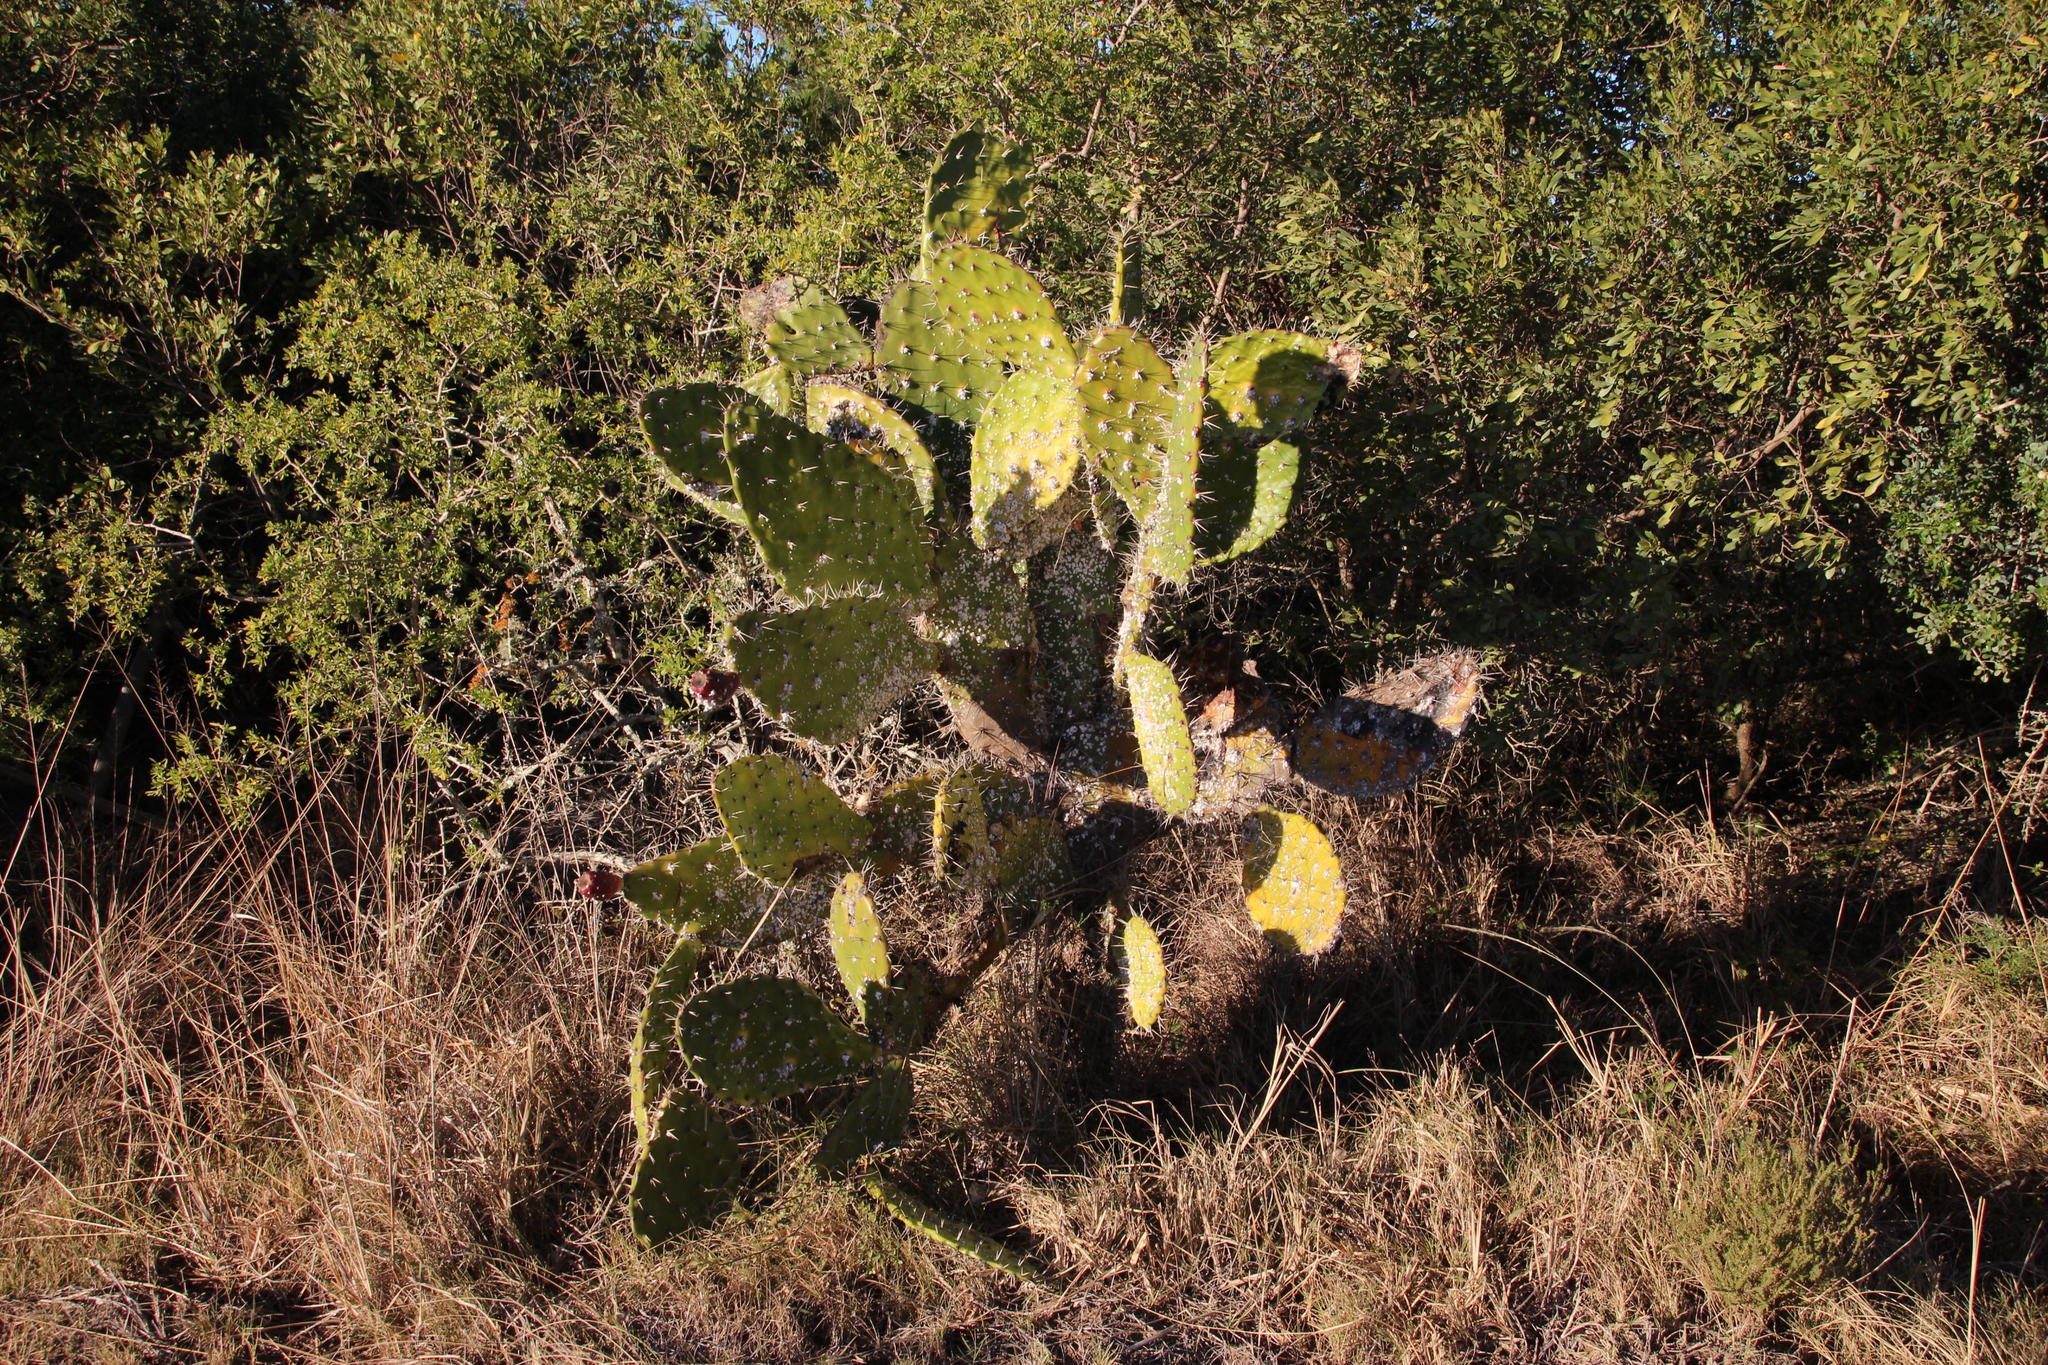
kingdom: Plantae
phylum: Tracheophyta
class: Magnoliopsida
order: Caryophyllales
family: Cactaceae
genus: Opuntia
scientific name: Opuntia ficus-indica
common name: Barbary fig
